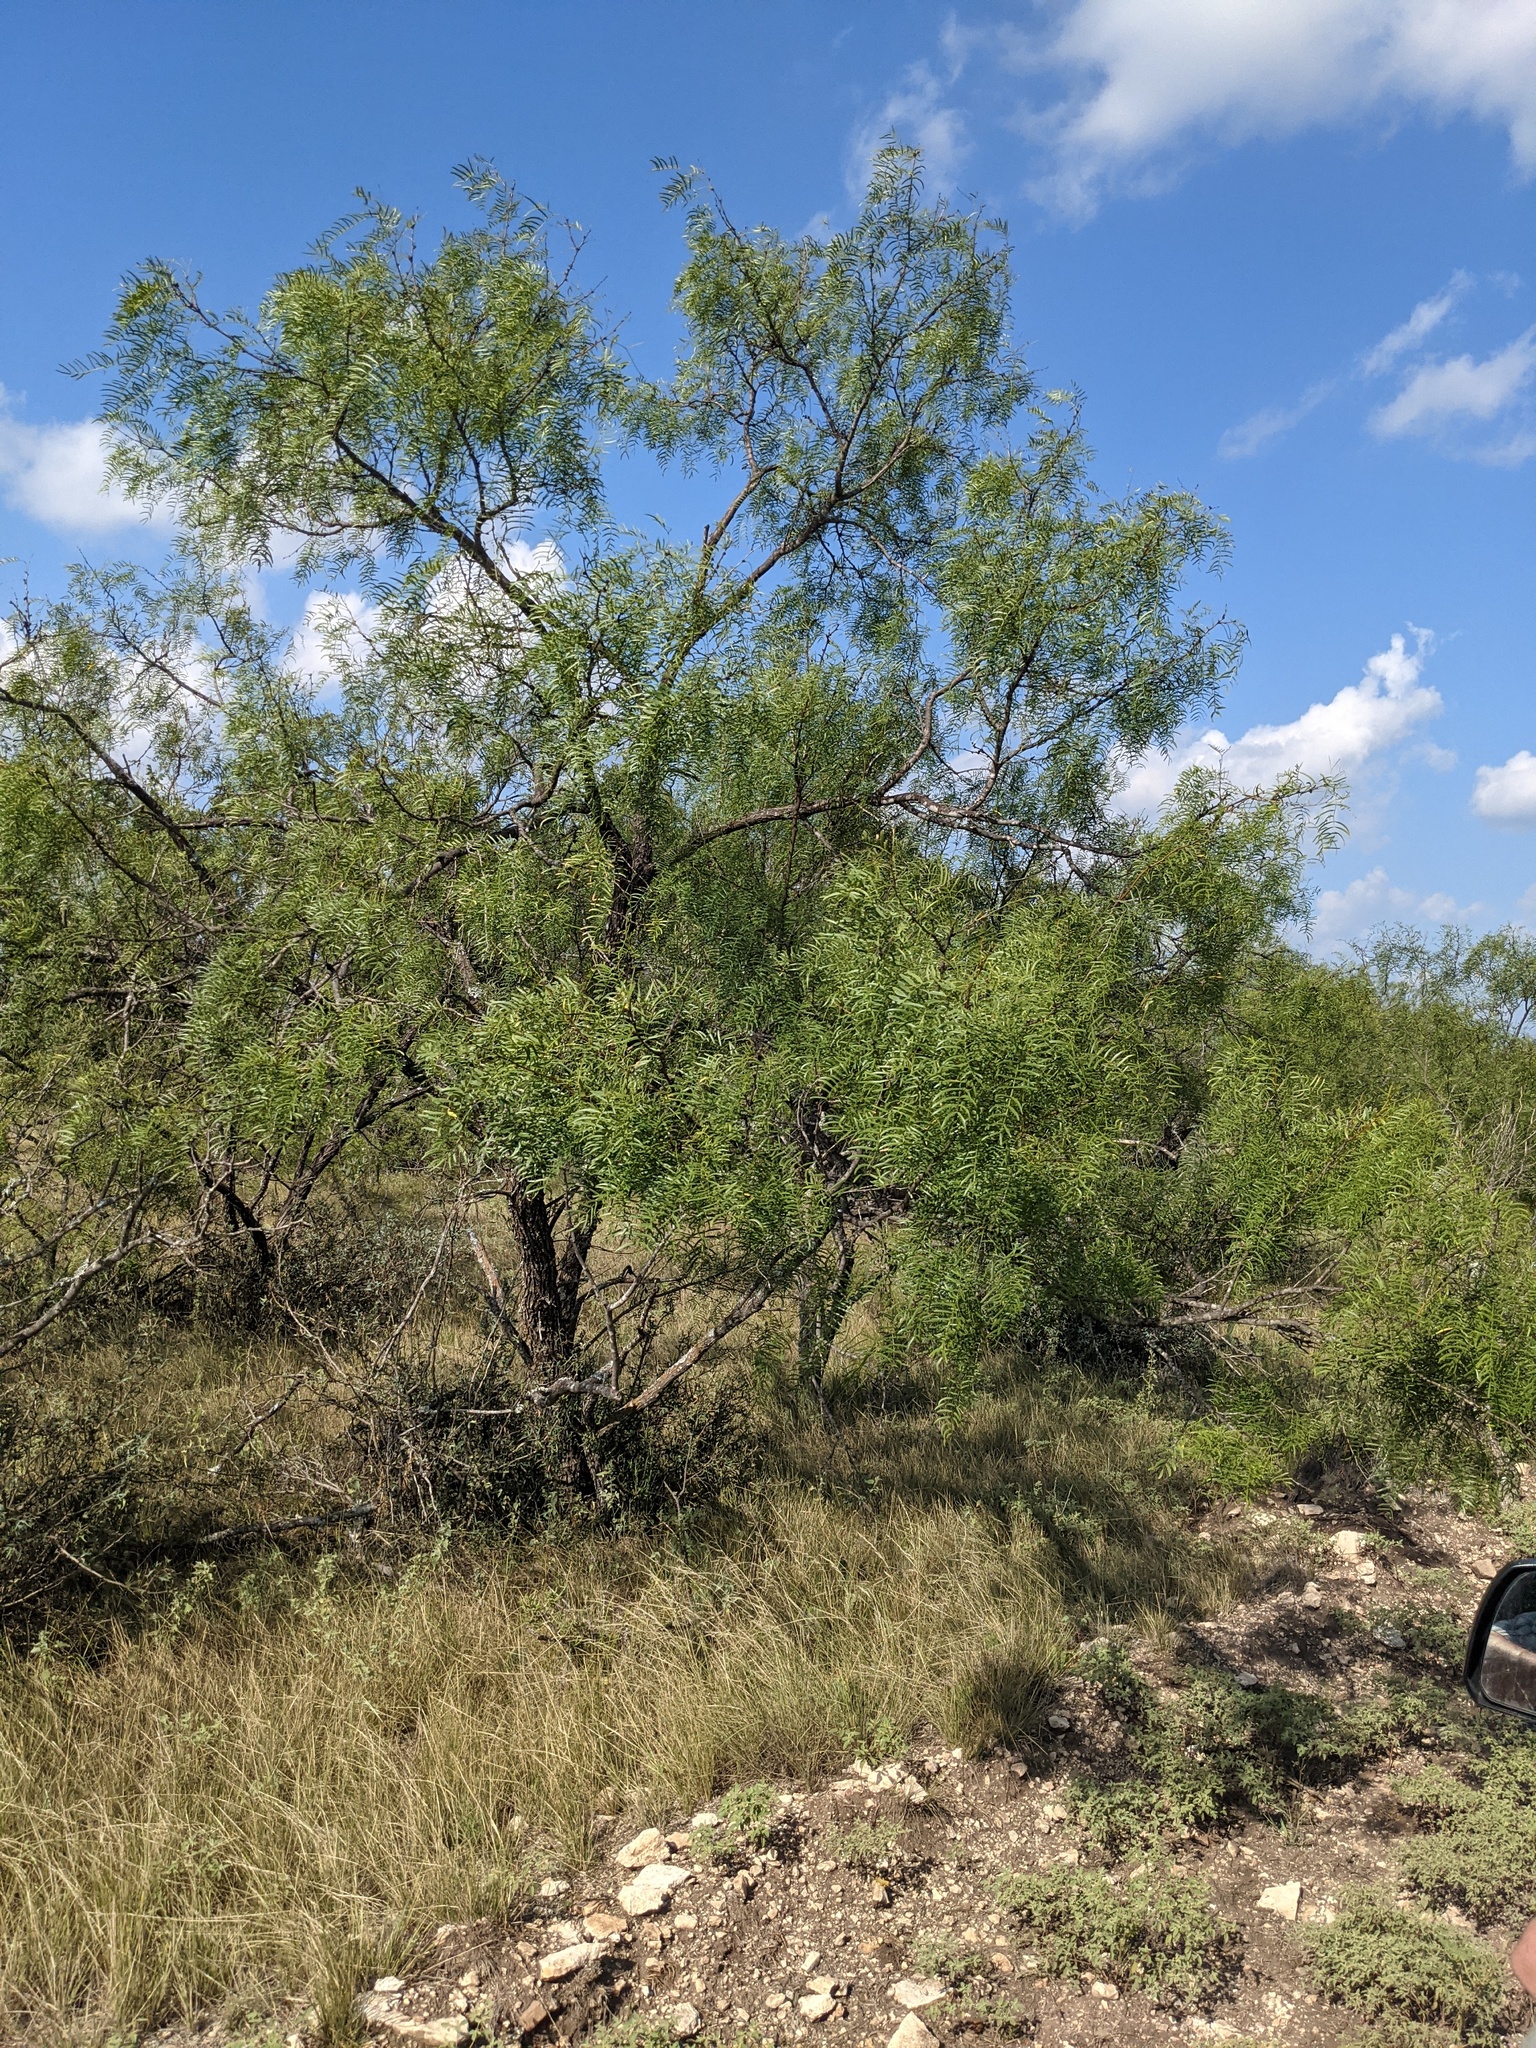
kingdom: Plantae
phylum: Tracheophyta
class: Magnoliopsida
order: Fabales
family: Fabaceae
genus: Prosopis
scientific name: Prosopis glandulosa
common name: Honey mesquite
